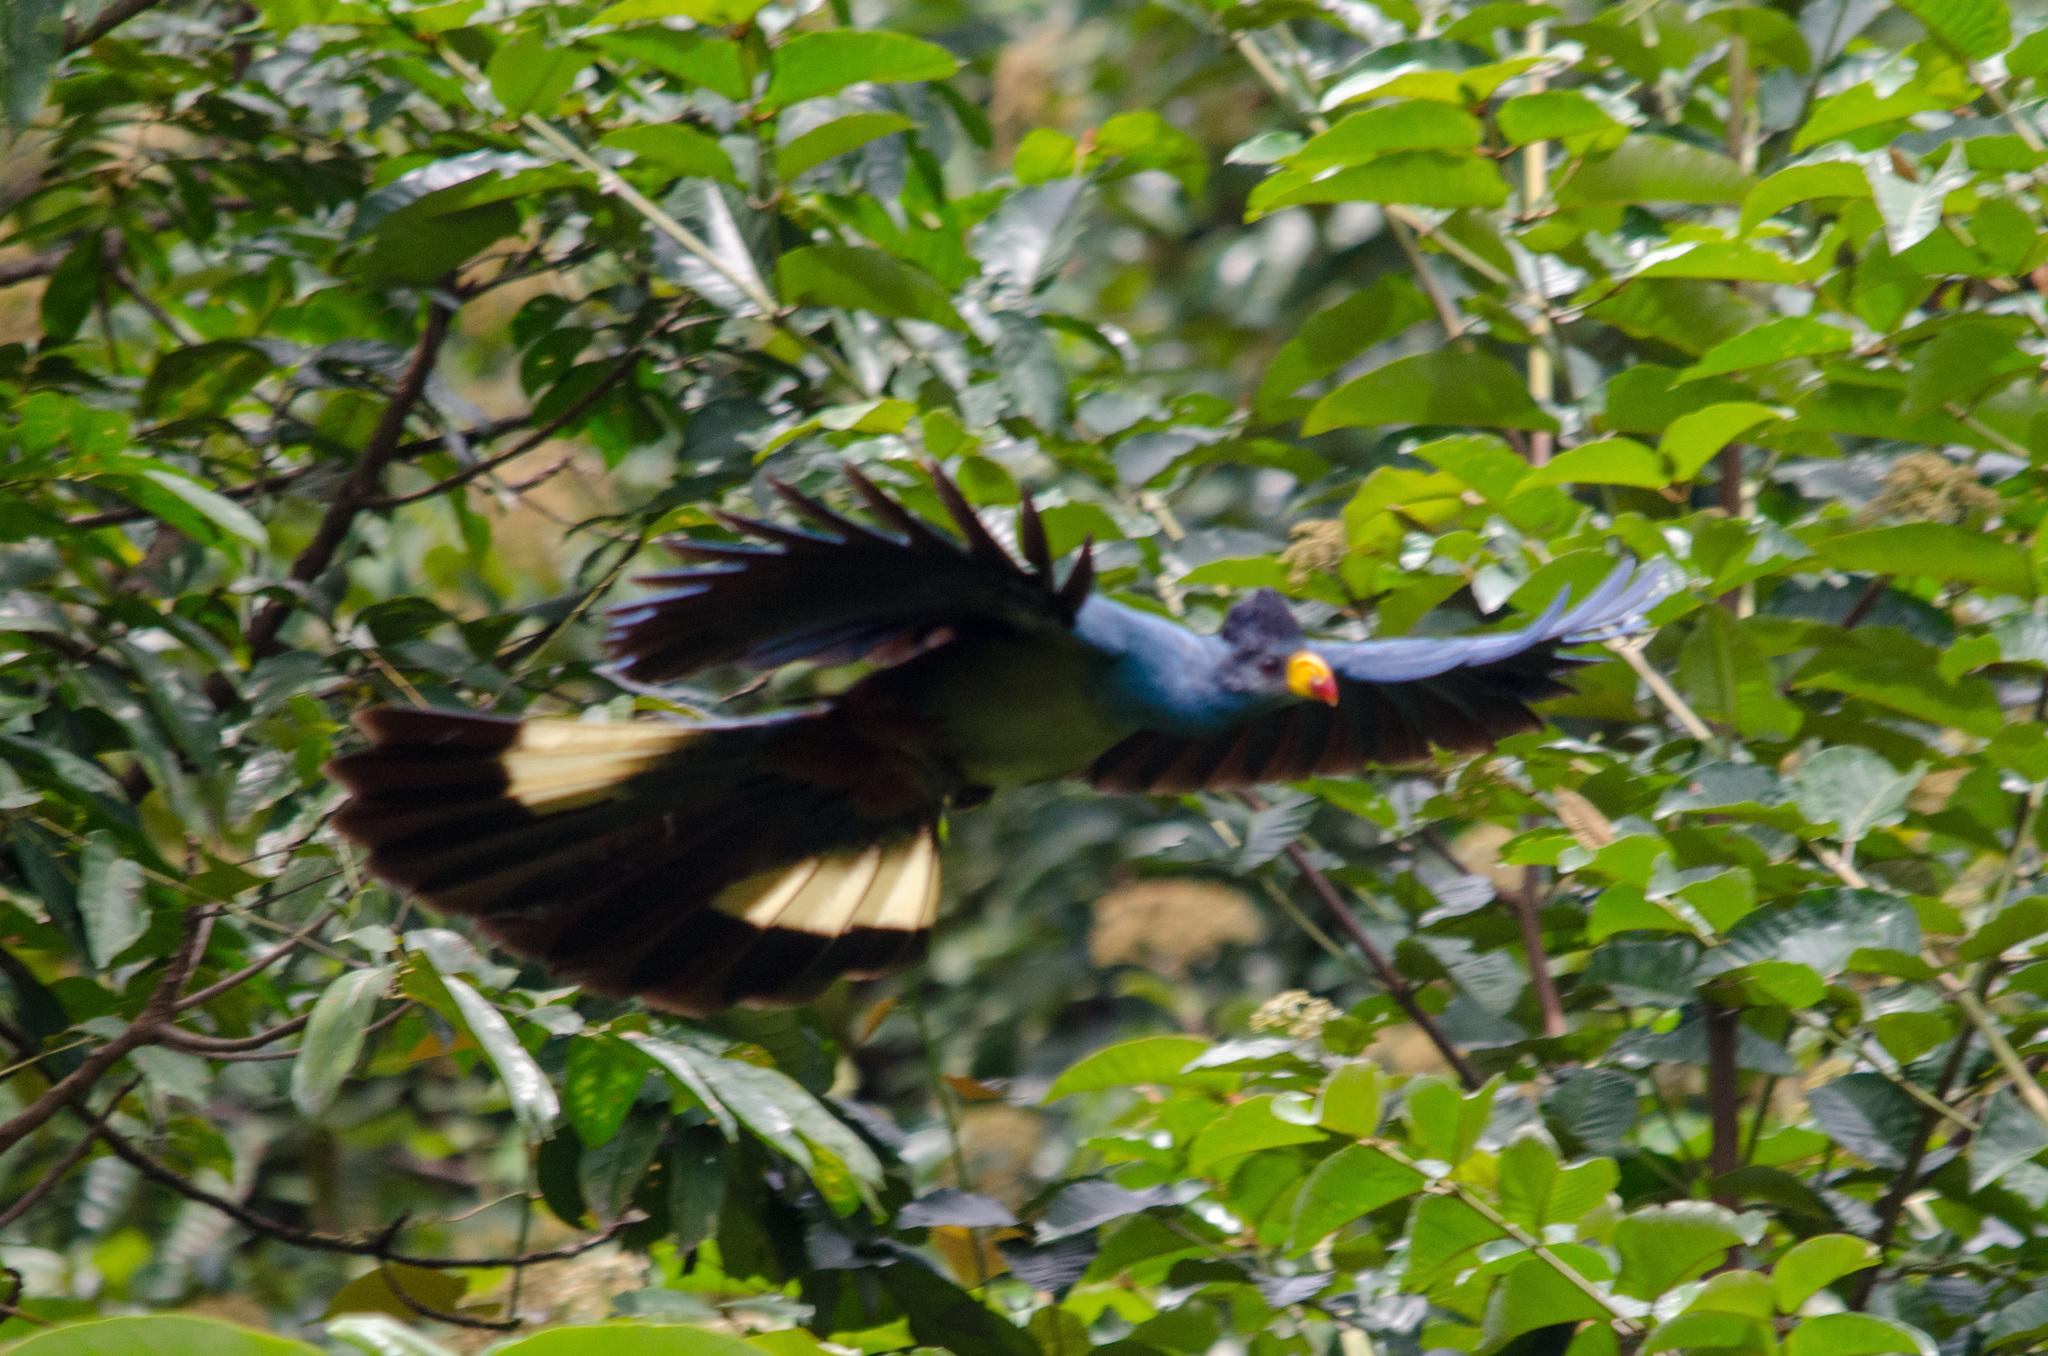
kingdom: Animalia
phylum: Chordata
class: Aves
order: Musophagiformes
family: Musophagidae
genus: Corythaeola
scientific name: Corythaeola cristata
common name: Great blue turaco
